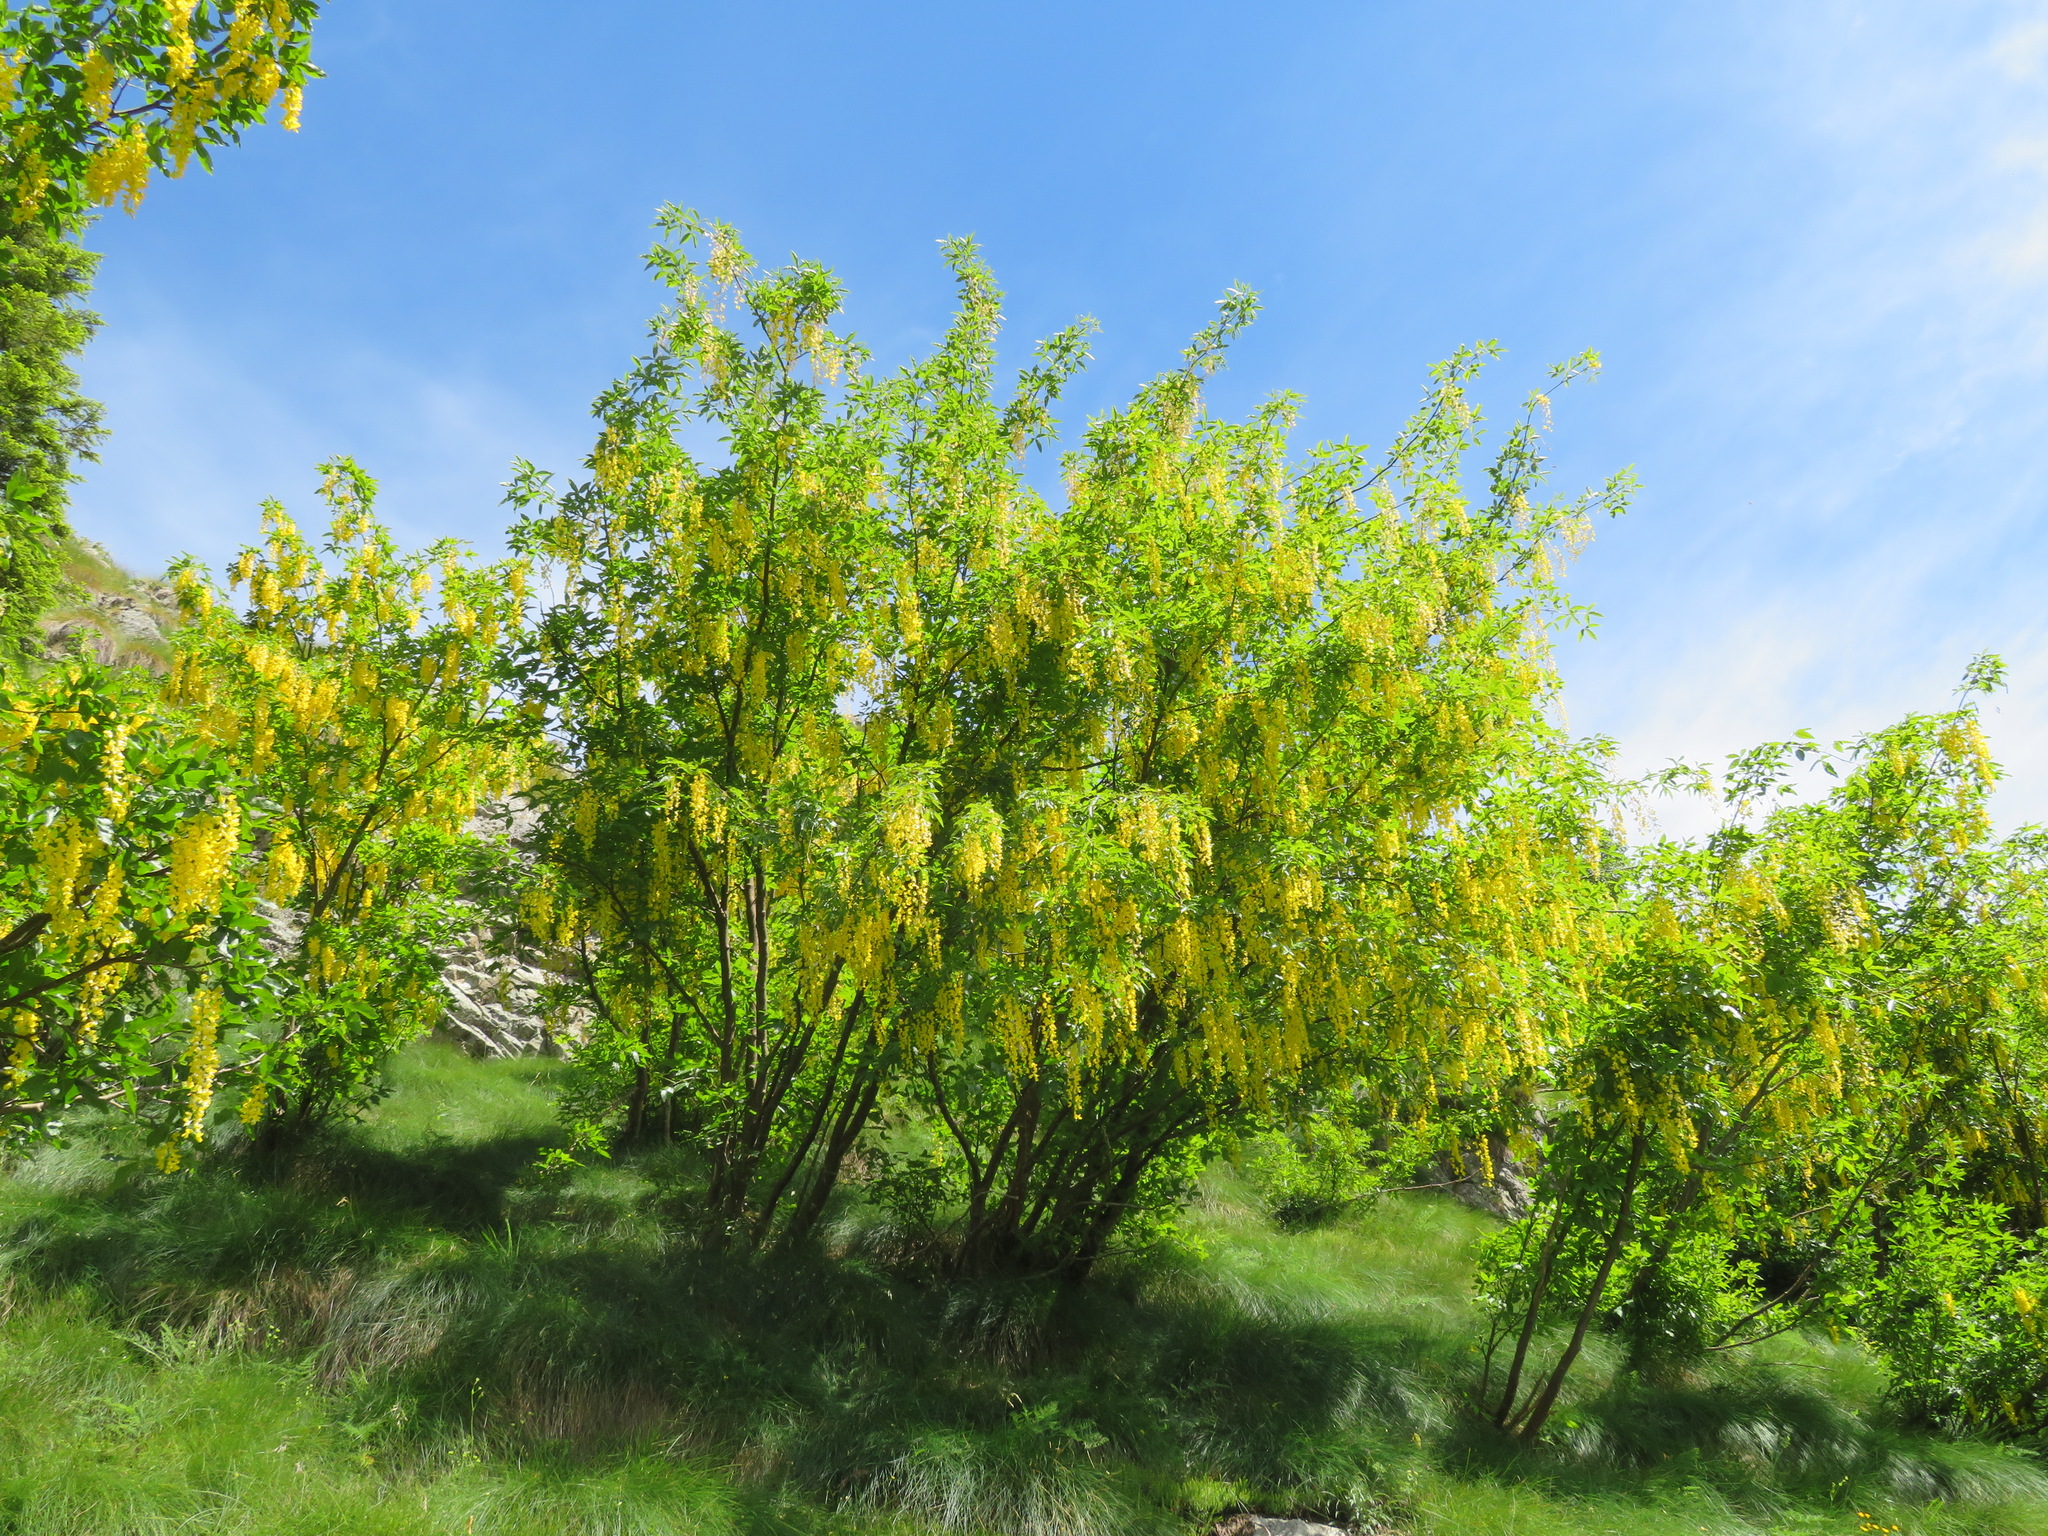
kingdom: Plantae
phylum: Tracheophyta
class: Magnoliopsida
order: Fabales
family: Fabaceae
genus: Laburnum
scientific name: Laburnum alpinum
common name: Scottish laburnum
